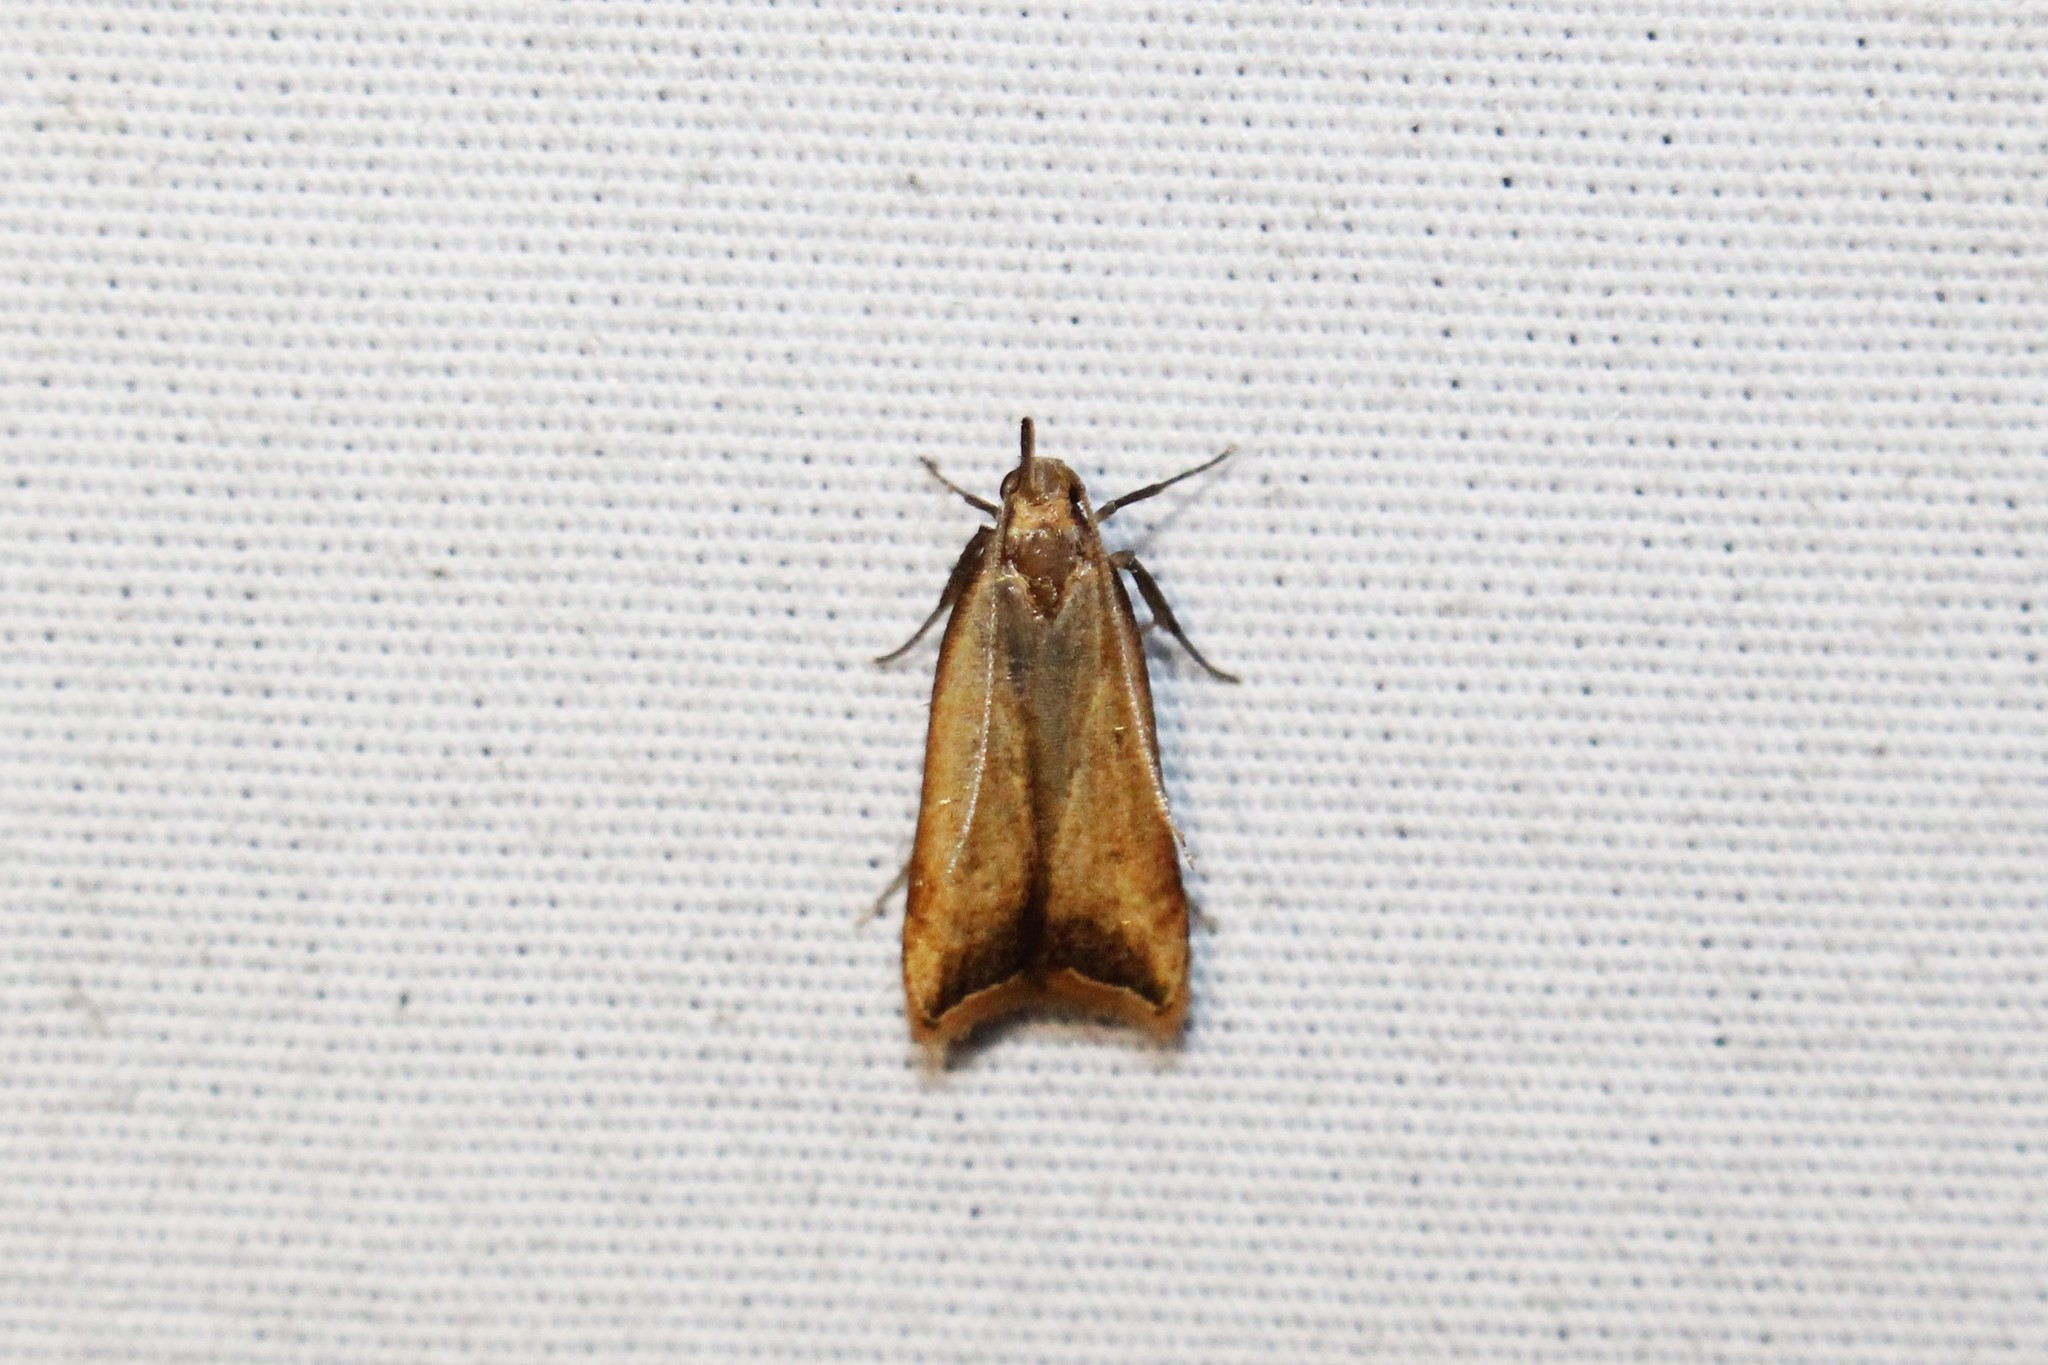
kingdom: Animalia
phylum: Arthropoda
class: Insecta
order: Lepidoptera
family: Gelechiidae
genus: Dichomeris
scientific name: Dichomeris heriguronis
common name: Black-edged dichomeris moth
